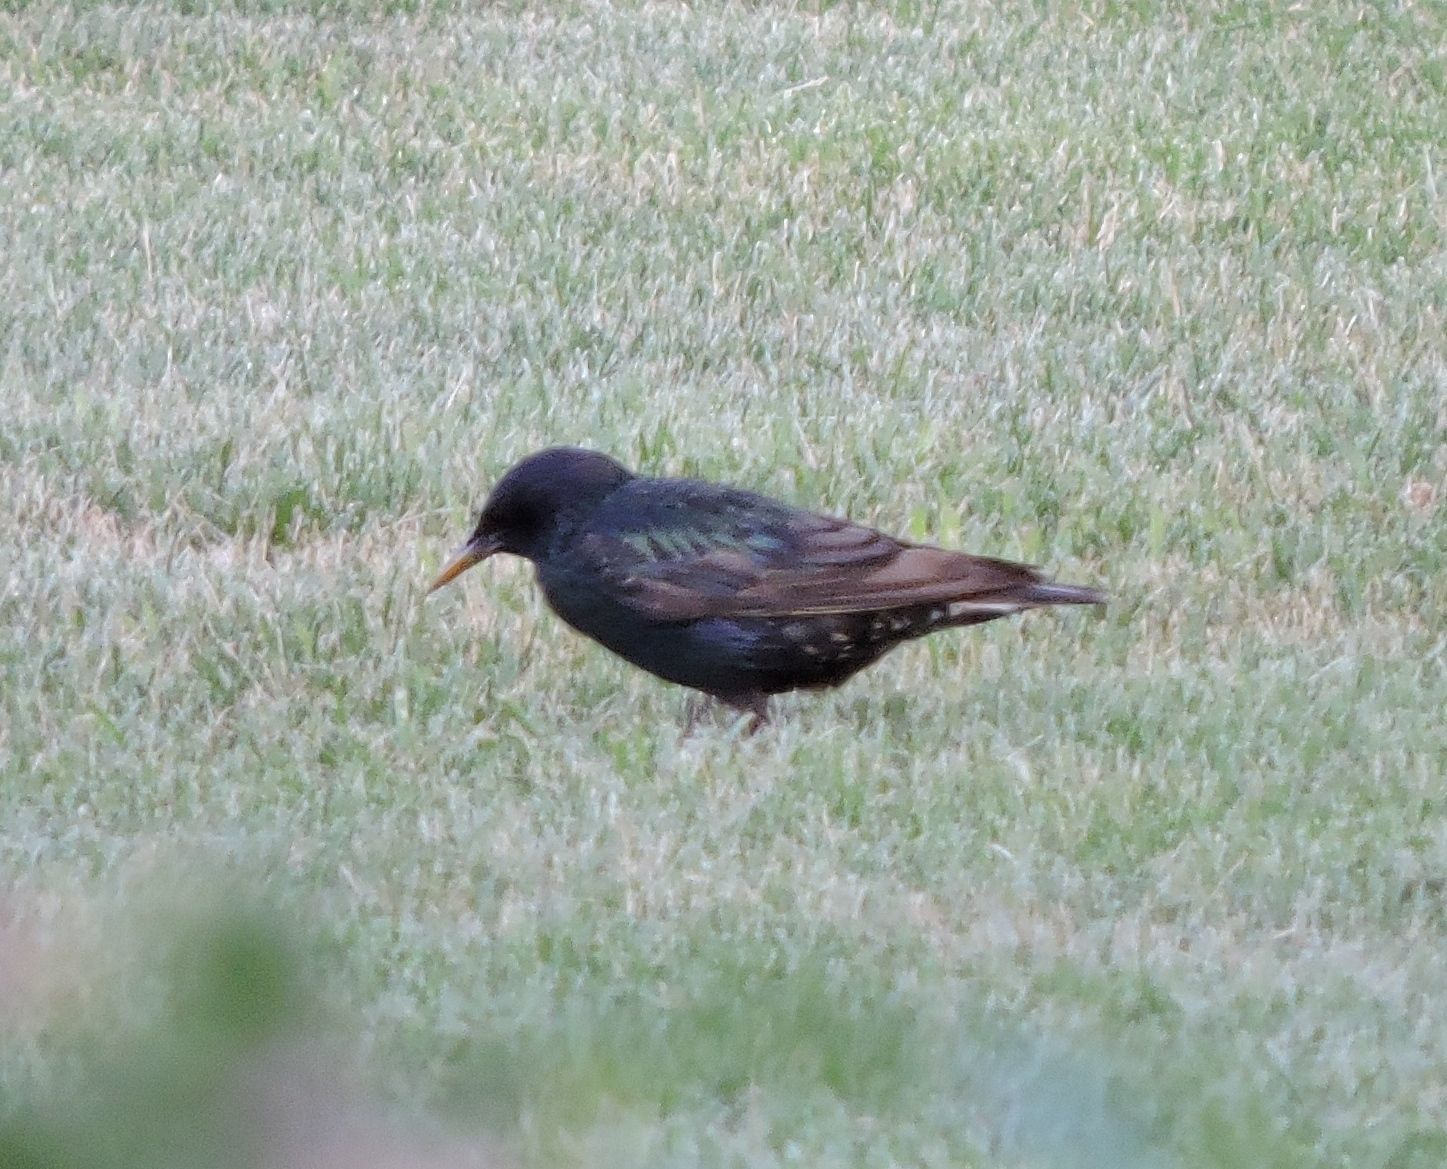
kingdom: Animalia
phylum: Chordata
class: Aves
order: Passeriformes
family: Sturnidae
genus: Sturnus
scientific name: Sturnus vulgaris
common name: Common starling
